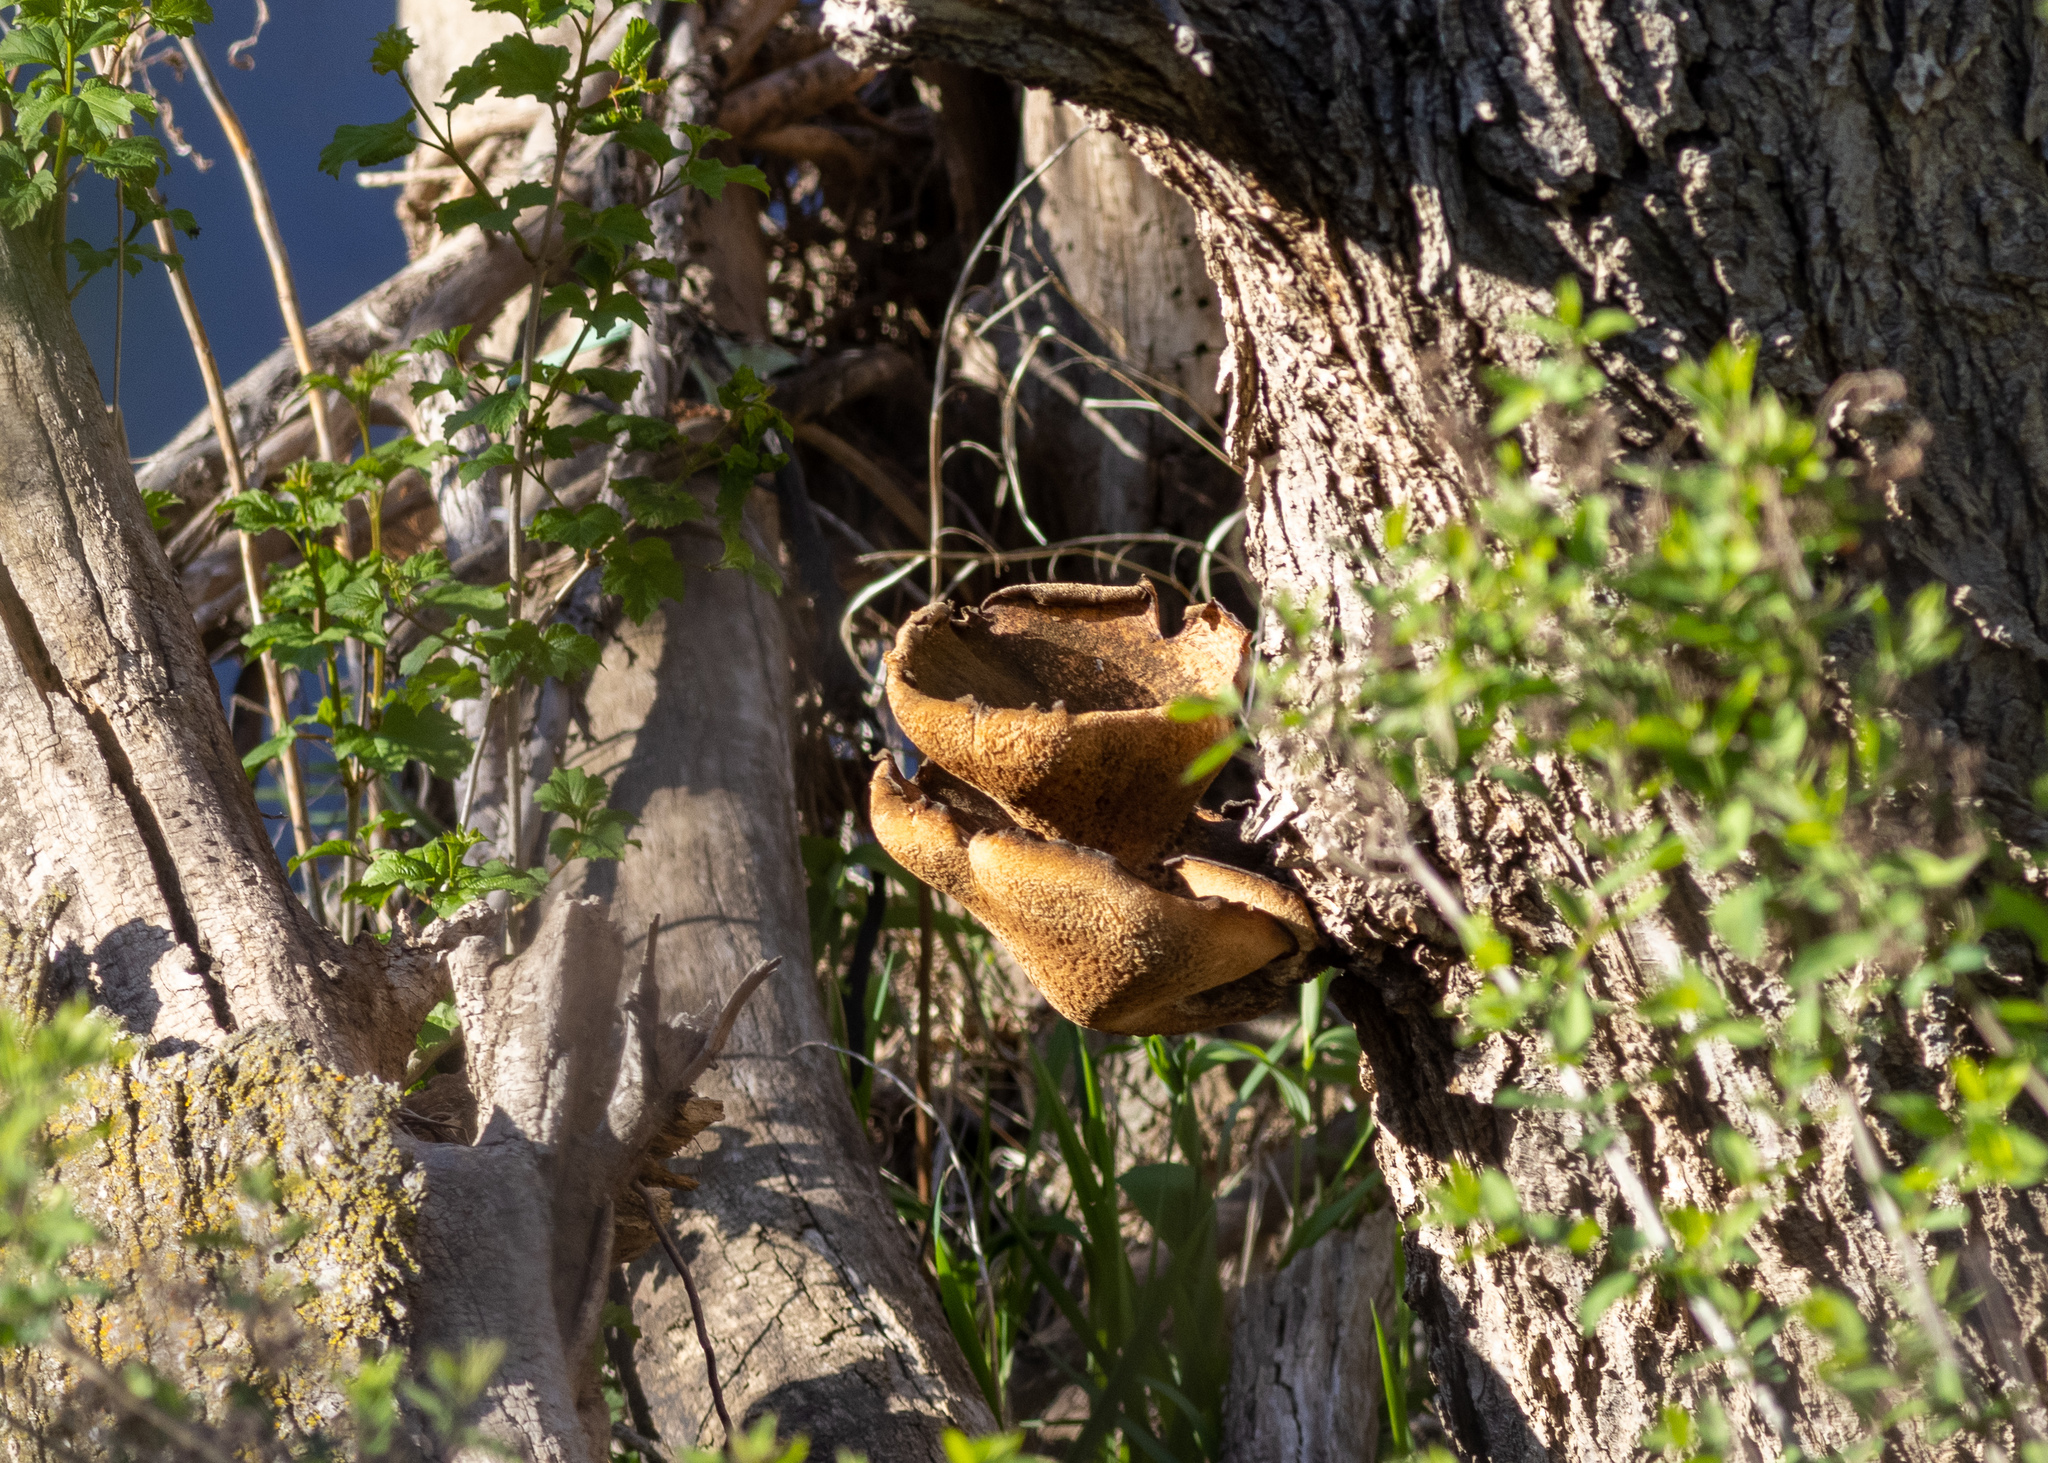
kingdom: Fungi
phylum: Basidiomycota
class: Agaricomycetes
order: Polyporales
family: Polyporaceae
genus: Cerioporus
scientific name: Cerioporus squamosus
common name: Dryad's saddle
